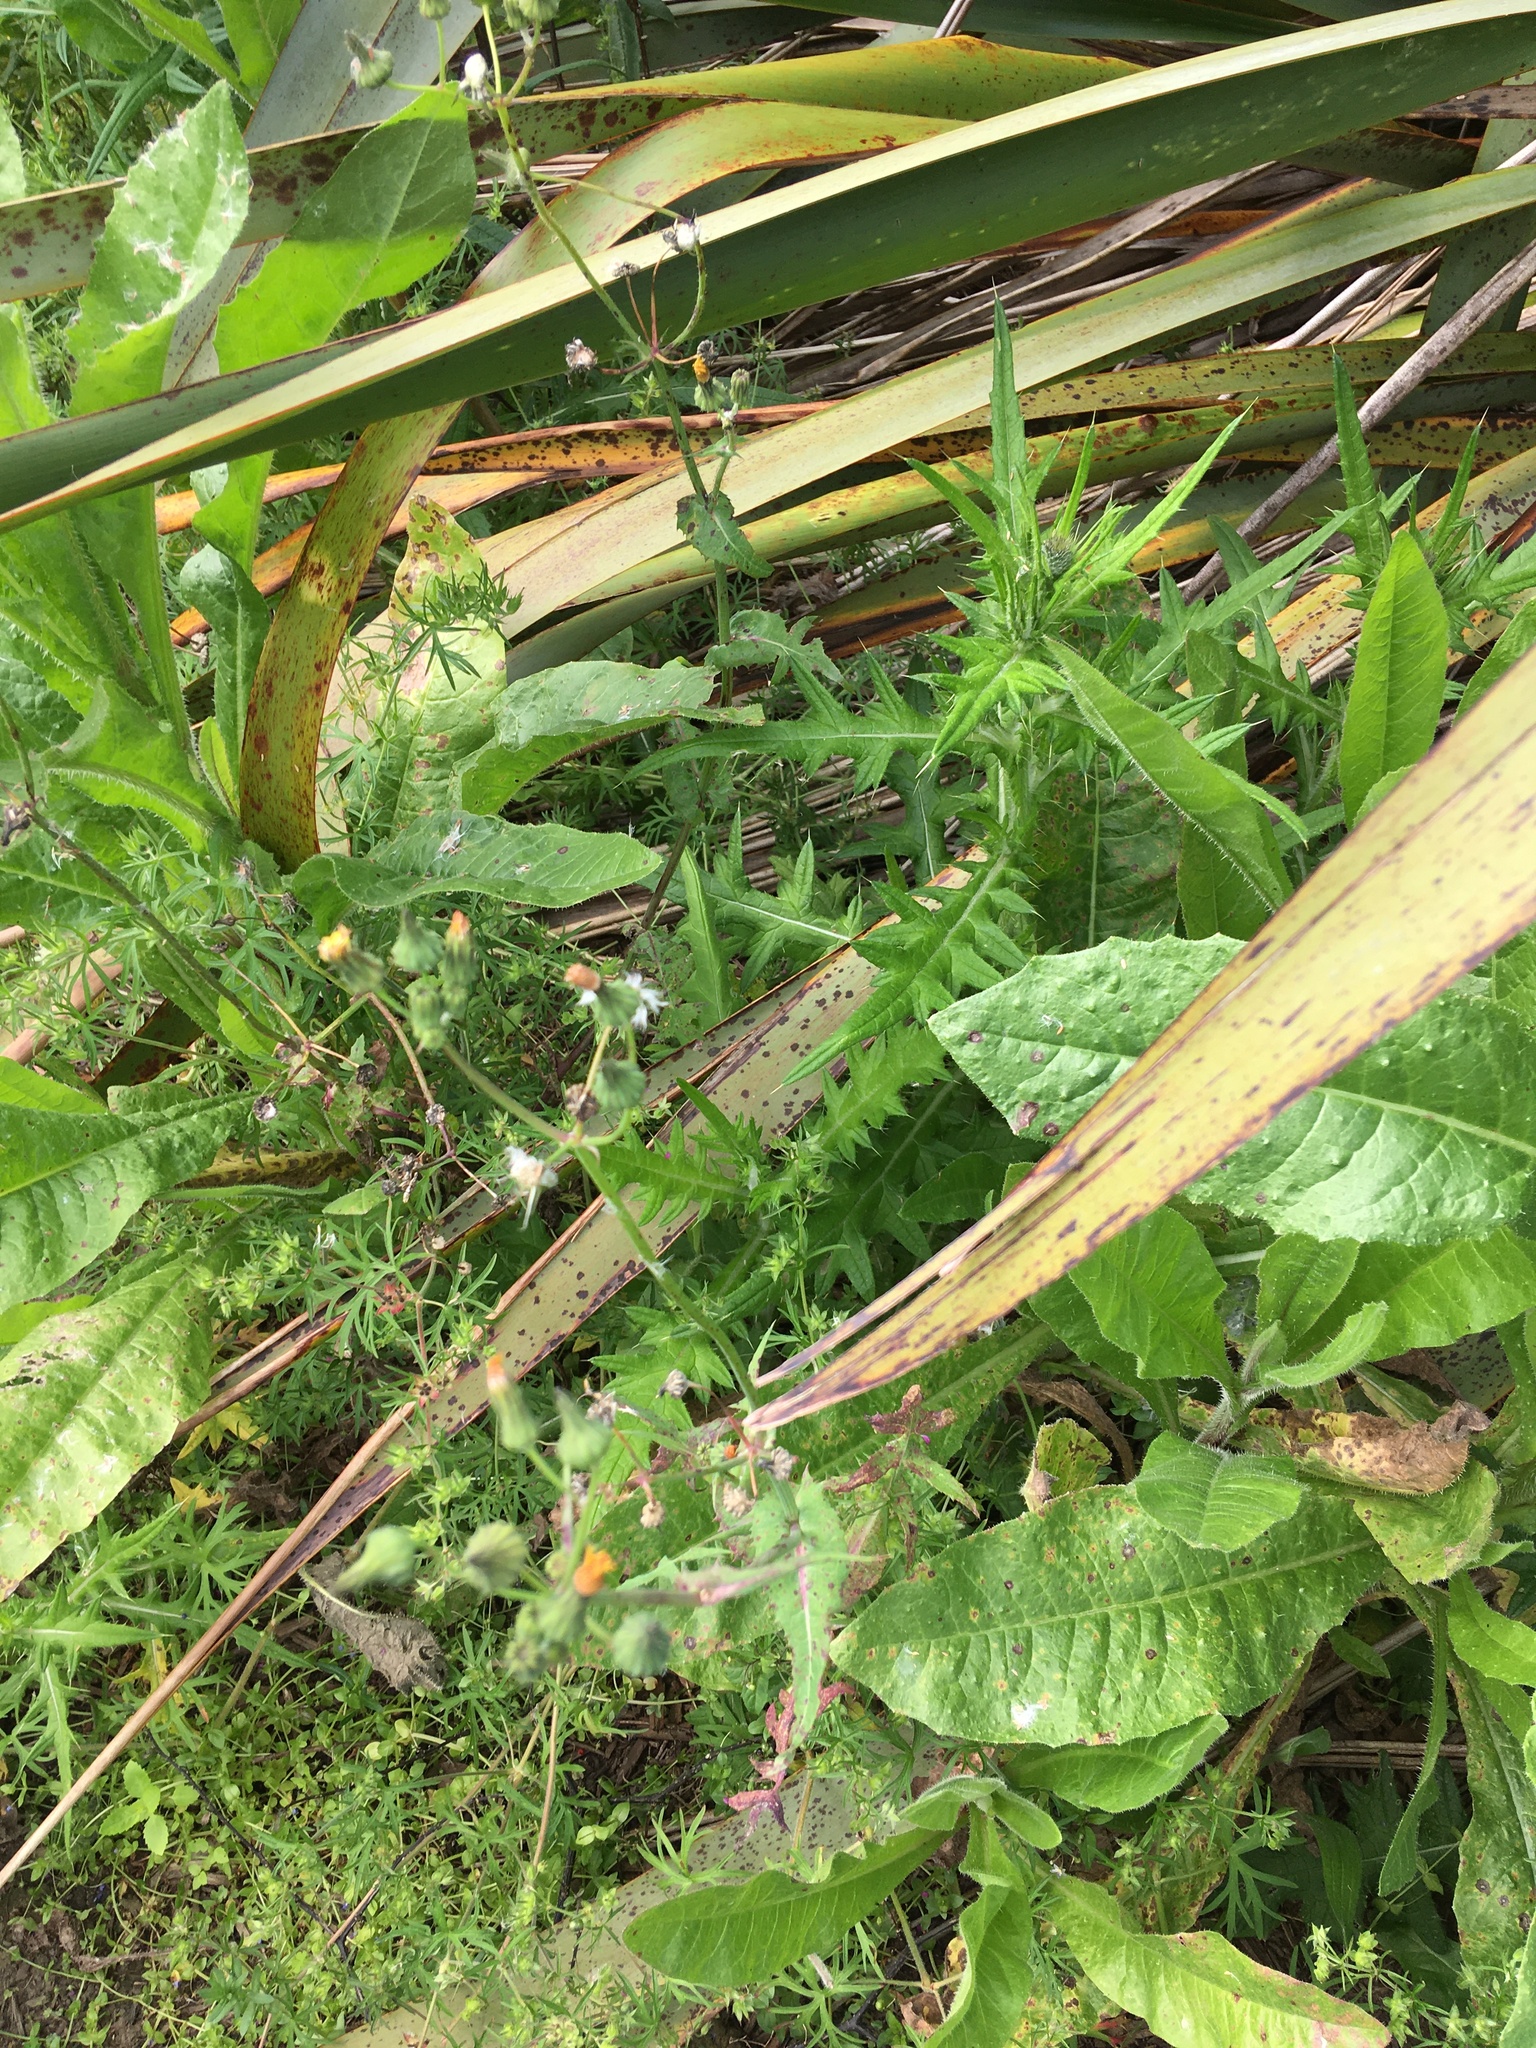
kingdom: Plantae
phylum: Tracheophyta
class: Magnoliopsida
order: Asterales
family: Asteraceae
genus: Sonchus
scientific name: Sonchus oleraceus
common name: Common sowthistle
